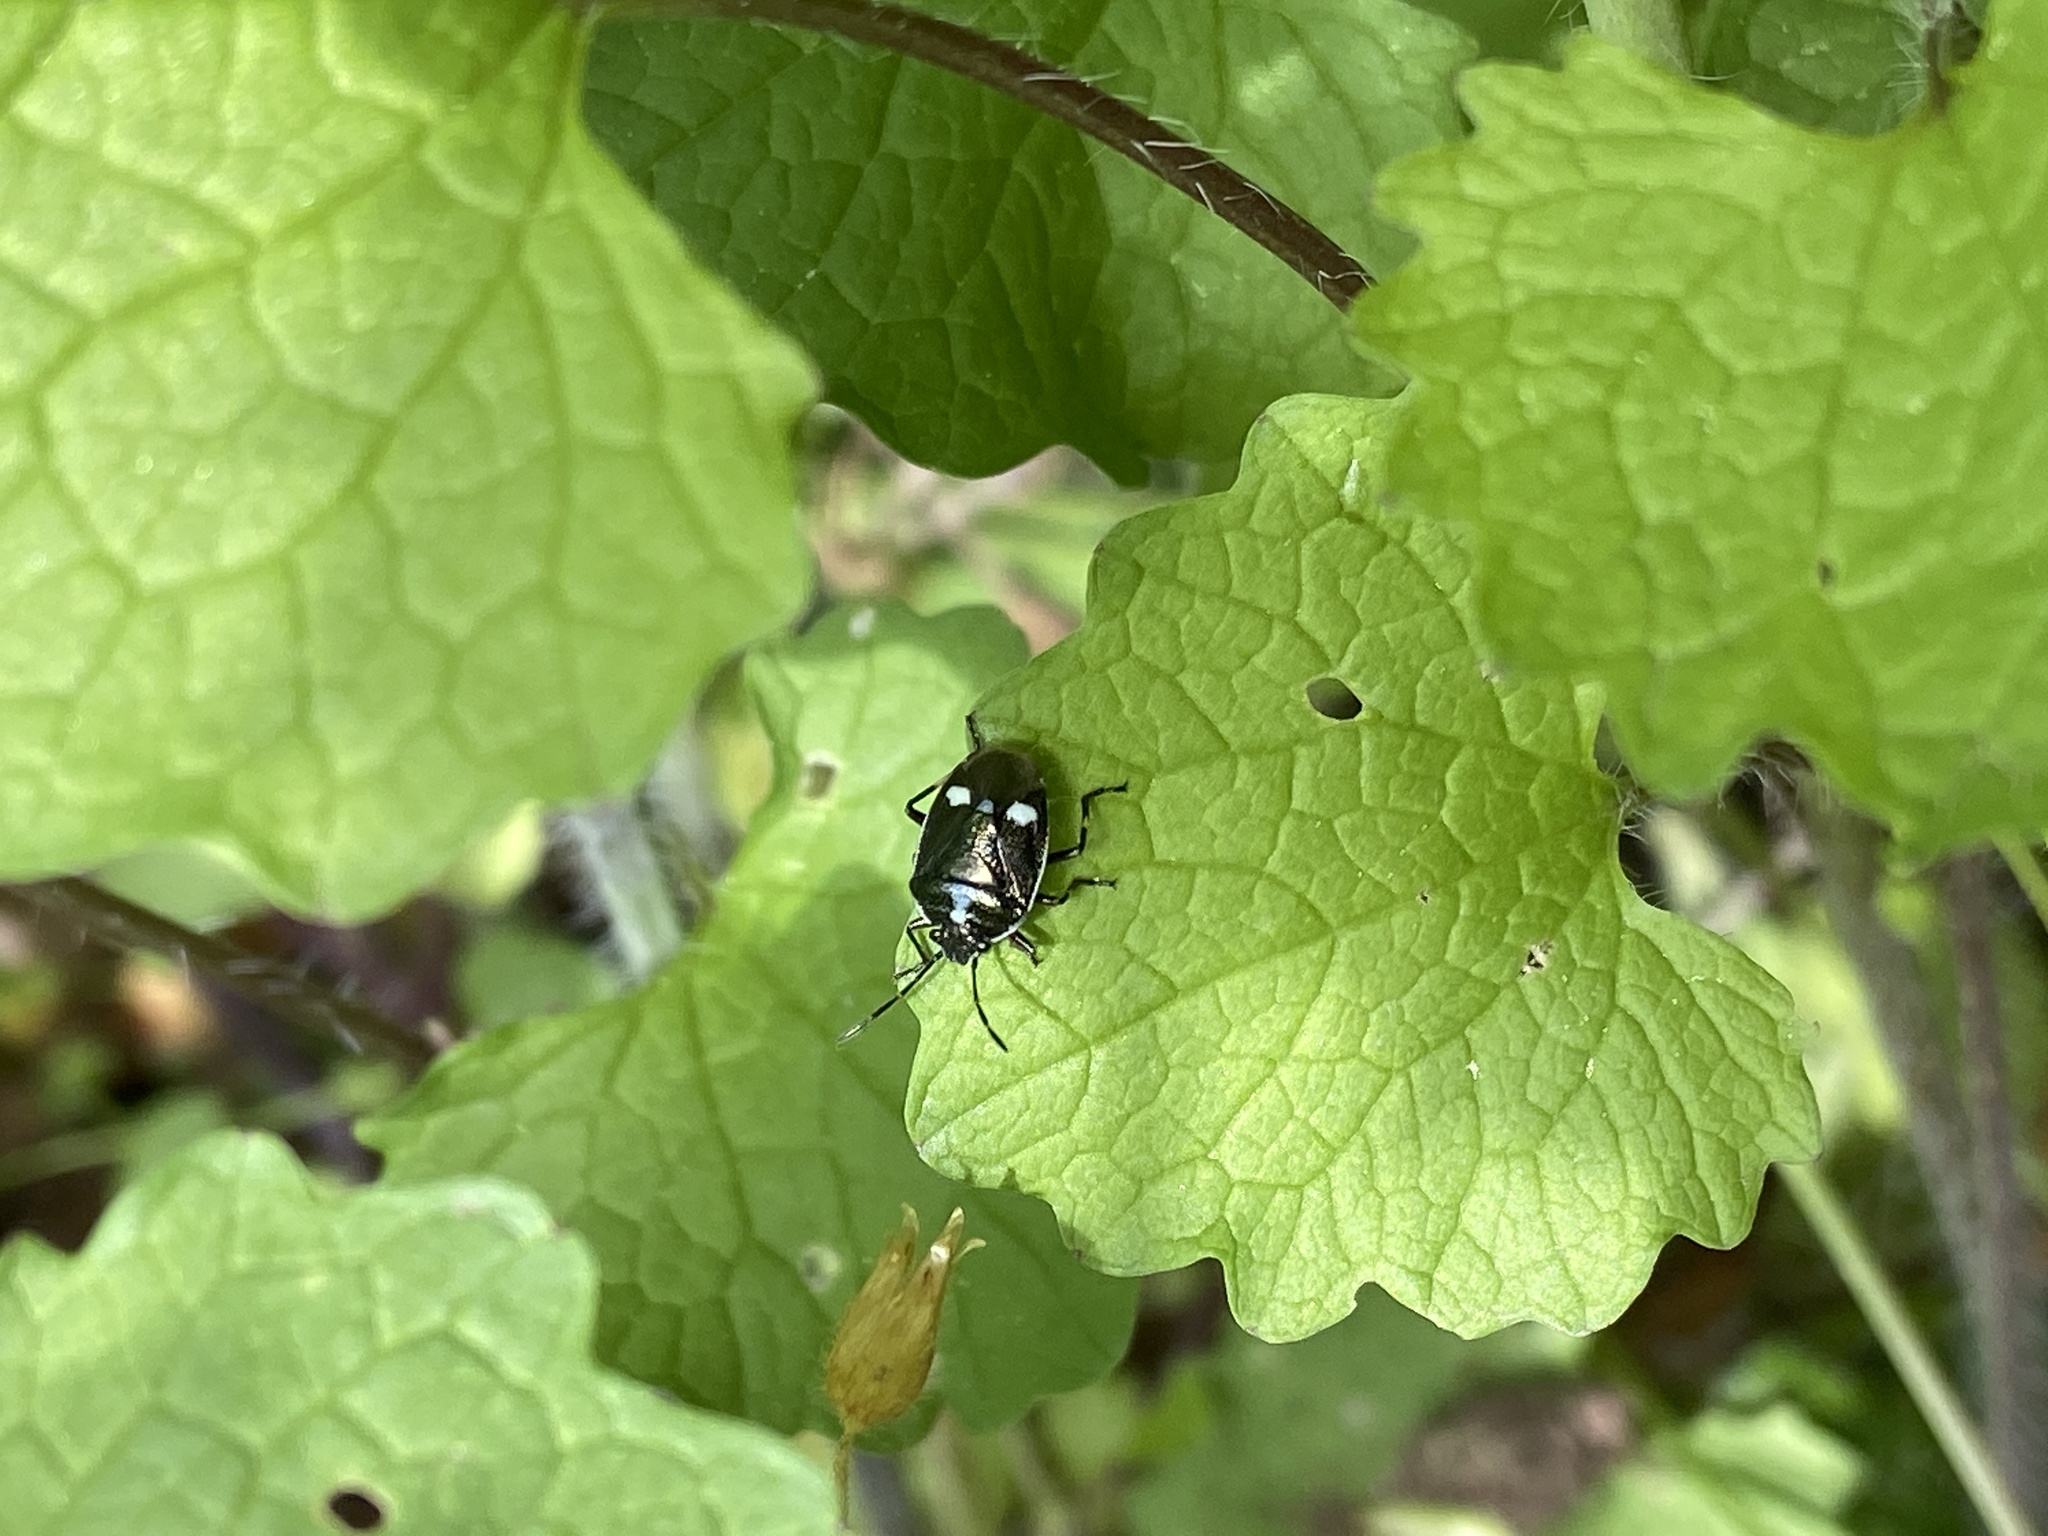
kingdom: Animalia
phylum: Arthropoda
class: Insecta
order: Hemiptera
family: Pentatomidae
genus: Eurydema
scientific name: Eurydema oleracea
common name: Cabbage bug
